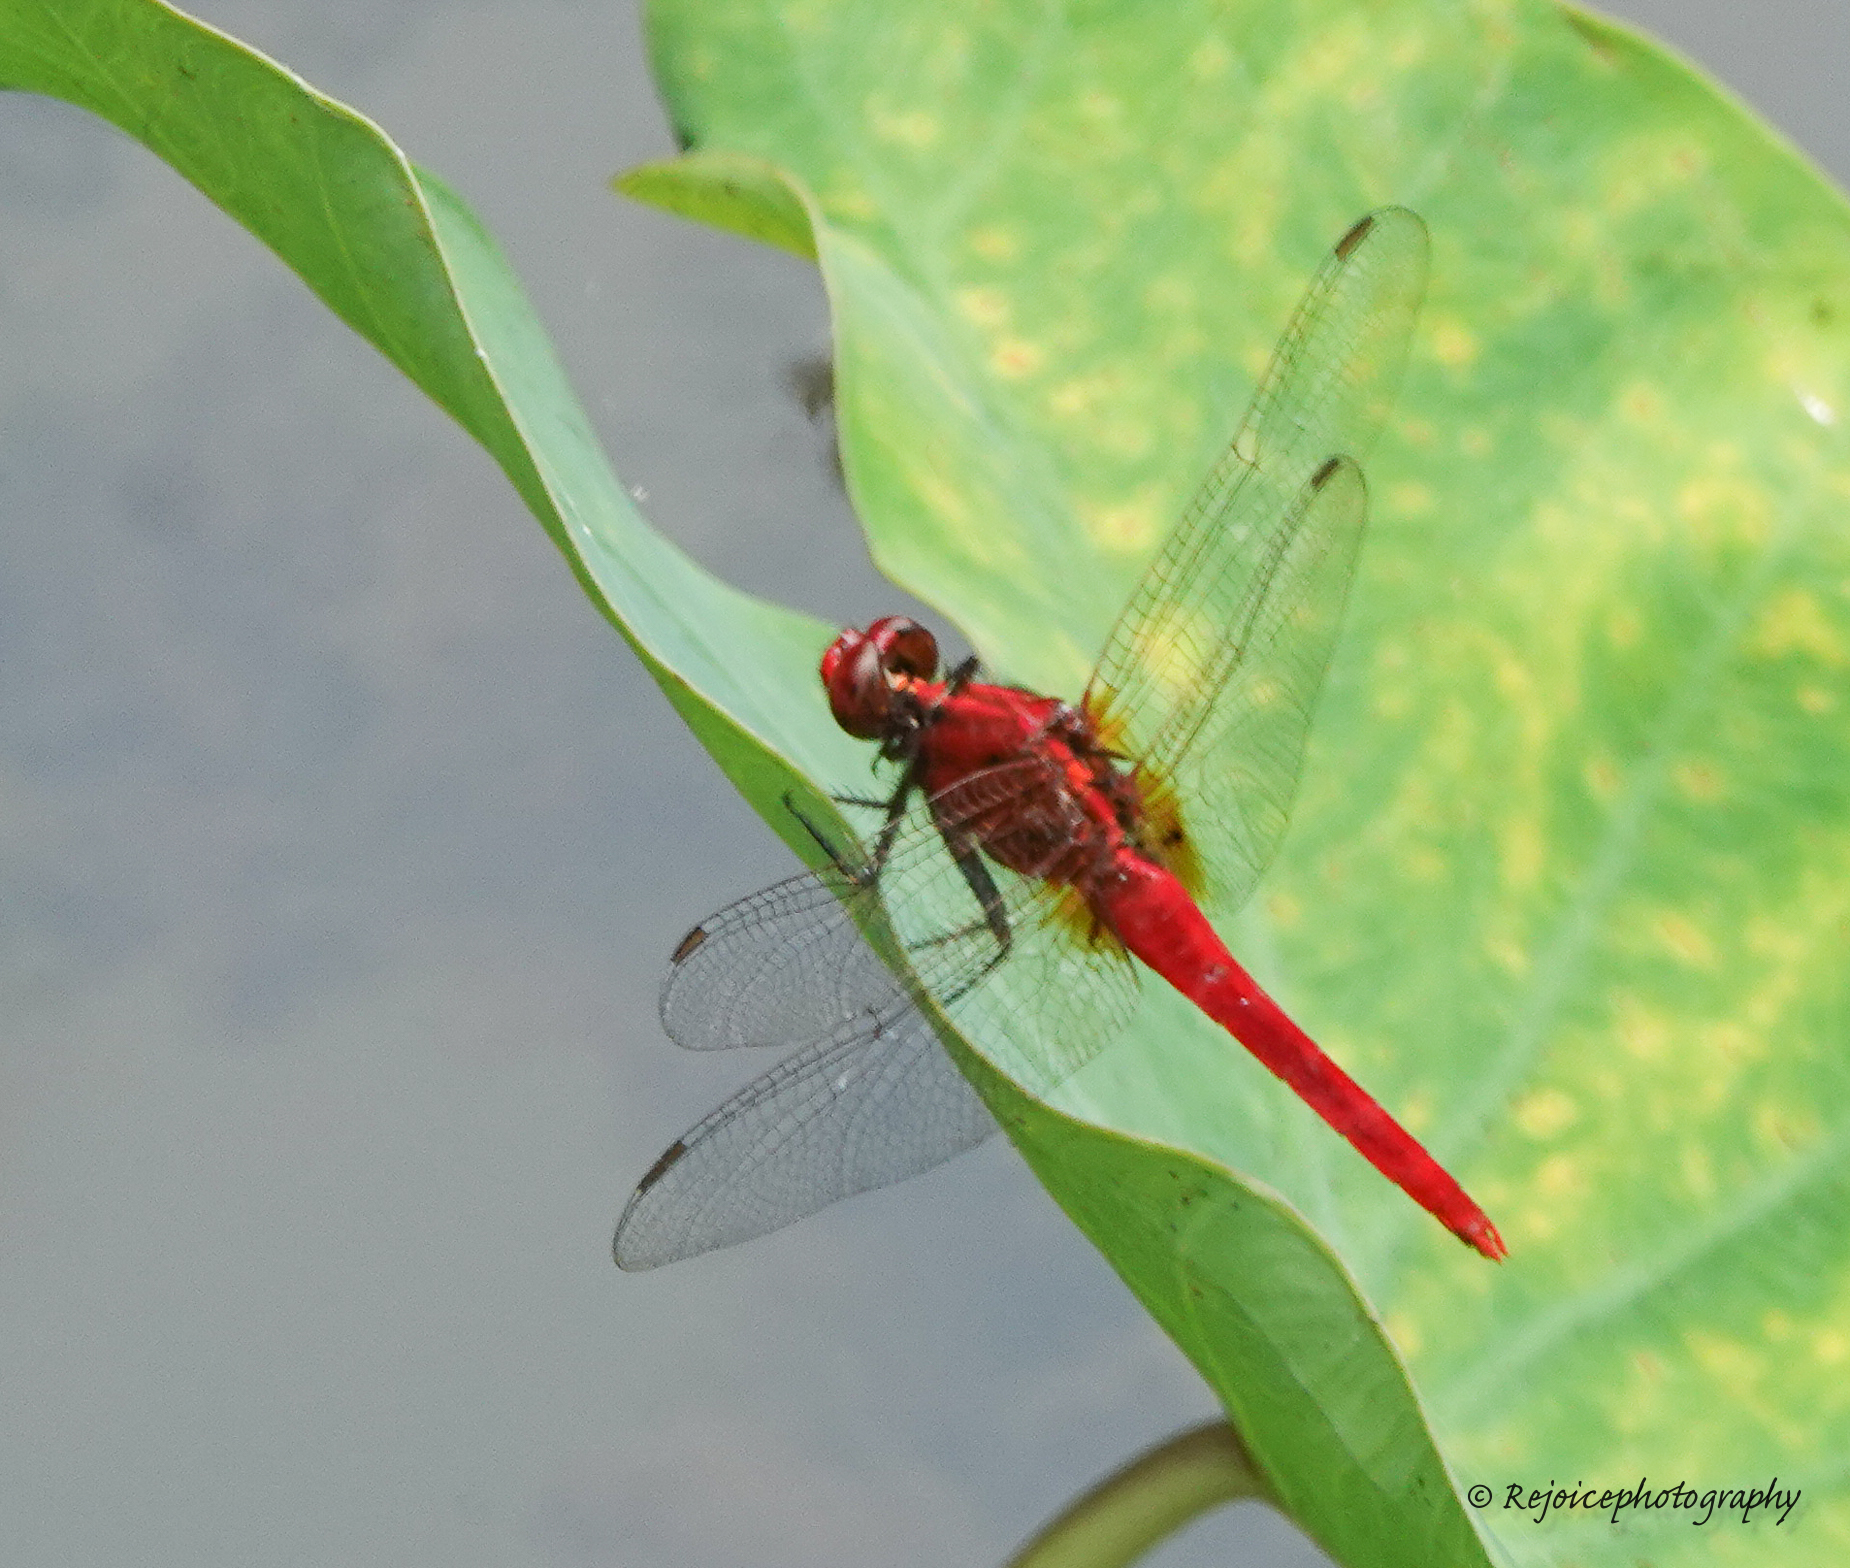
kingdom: Animalia
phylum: Arthropoda
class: Insecta
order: Odonata
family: Libellulidae
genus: Rhodothemis
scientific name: Rhodothemis rufa
